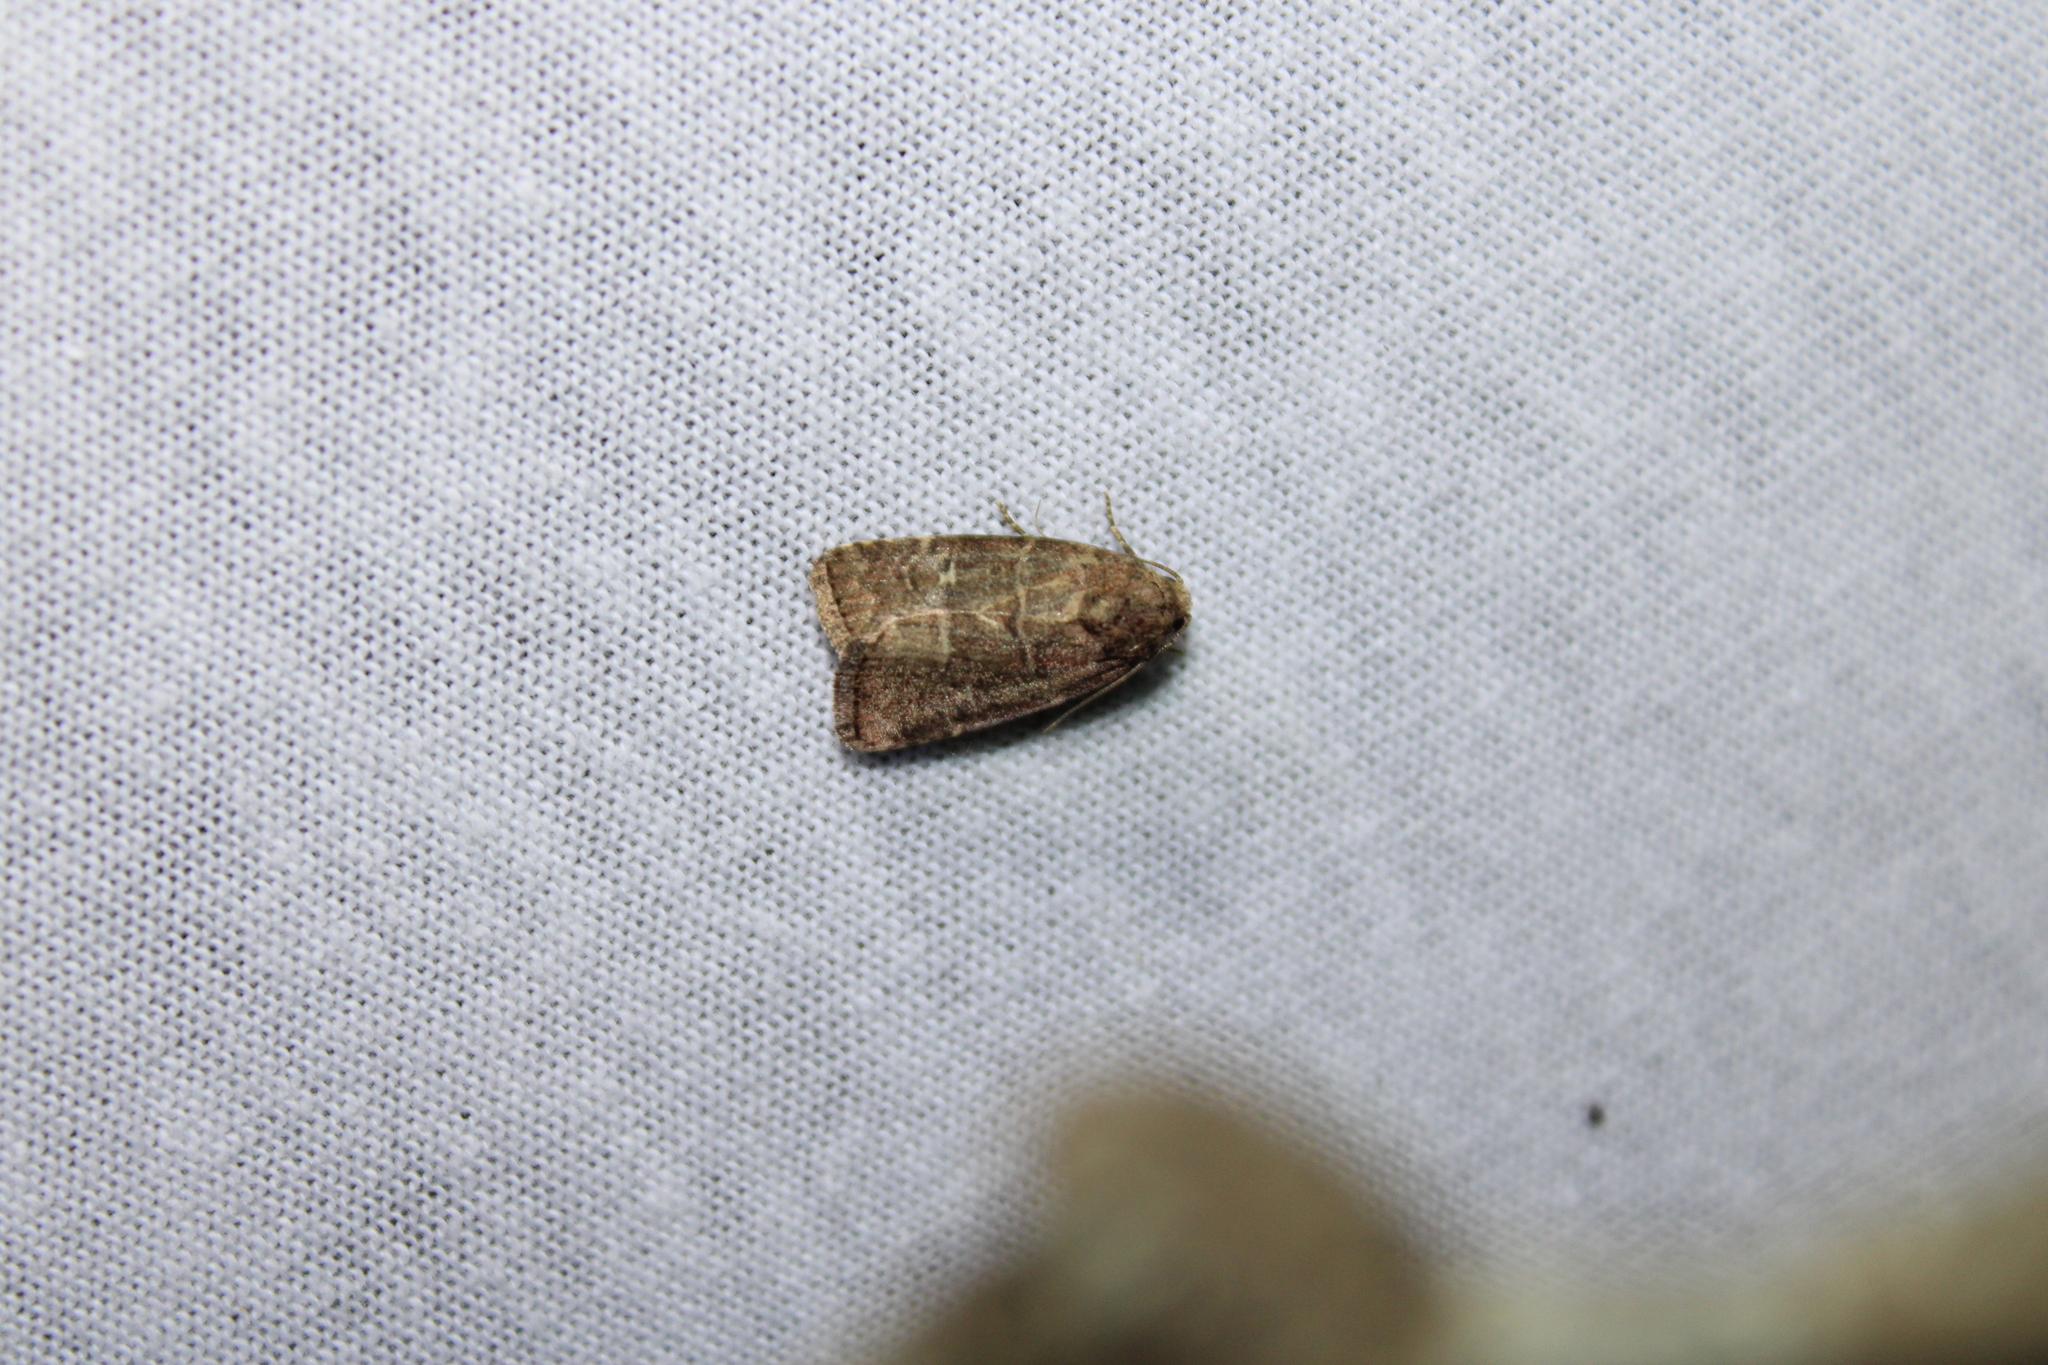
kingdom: Animalia
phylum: Arthropoda
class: Insecta
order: Lepidoptera
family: Noctuidae
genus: Elaphria
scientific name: Elaphria grata
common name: Grateful midget moth
